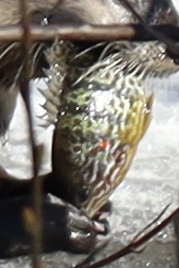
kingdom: Animalia
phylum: Chordata
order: Perciformes
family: Centrarchidae
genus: Lepomis
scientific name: Lepomis gibbosus
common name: Pumpkinseed
